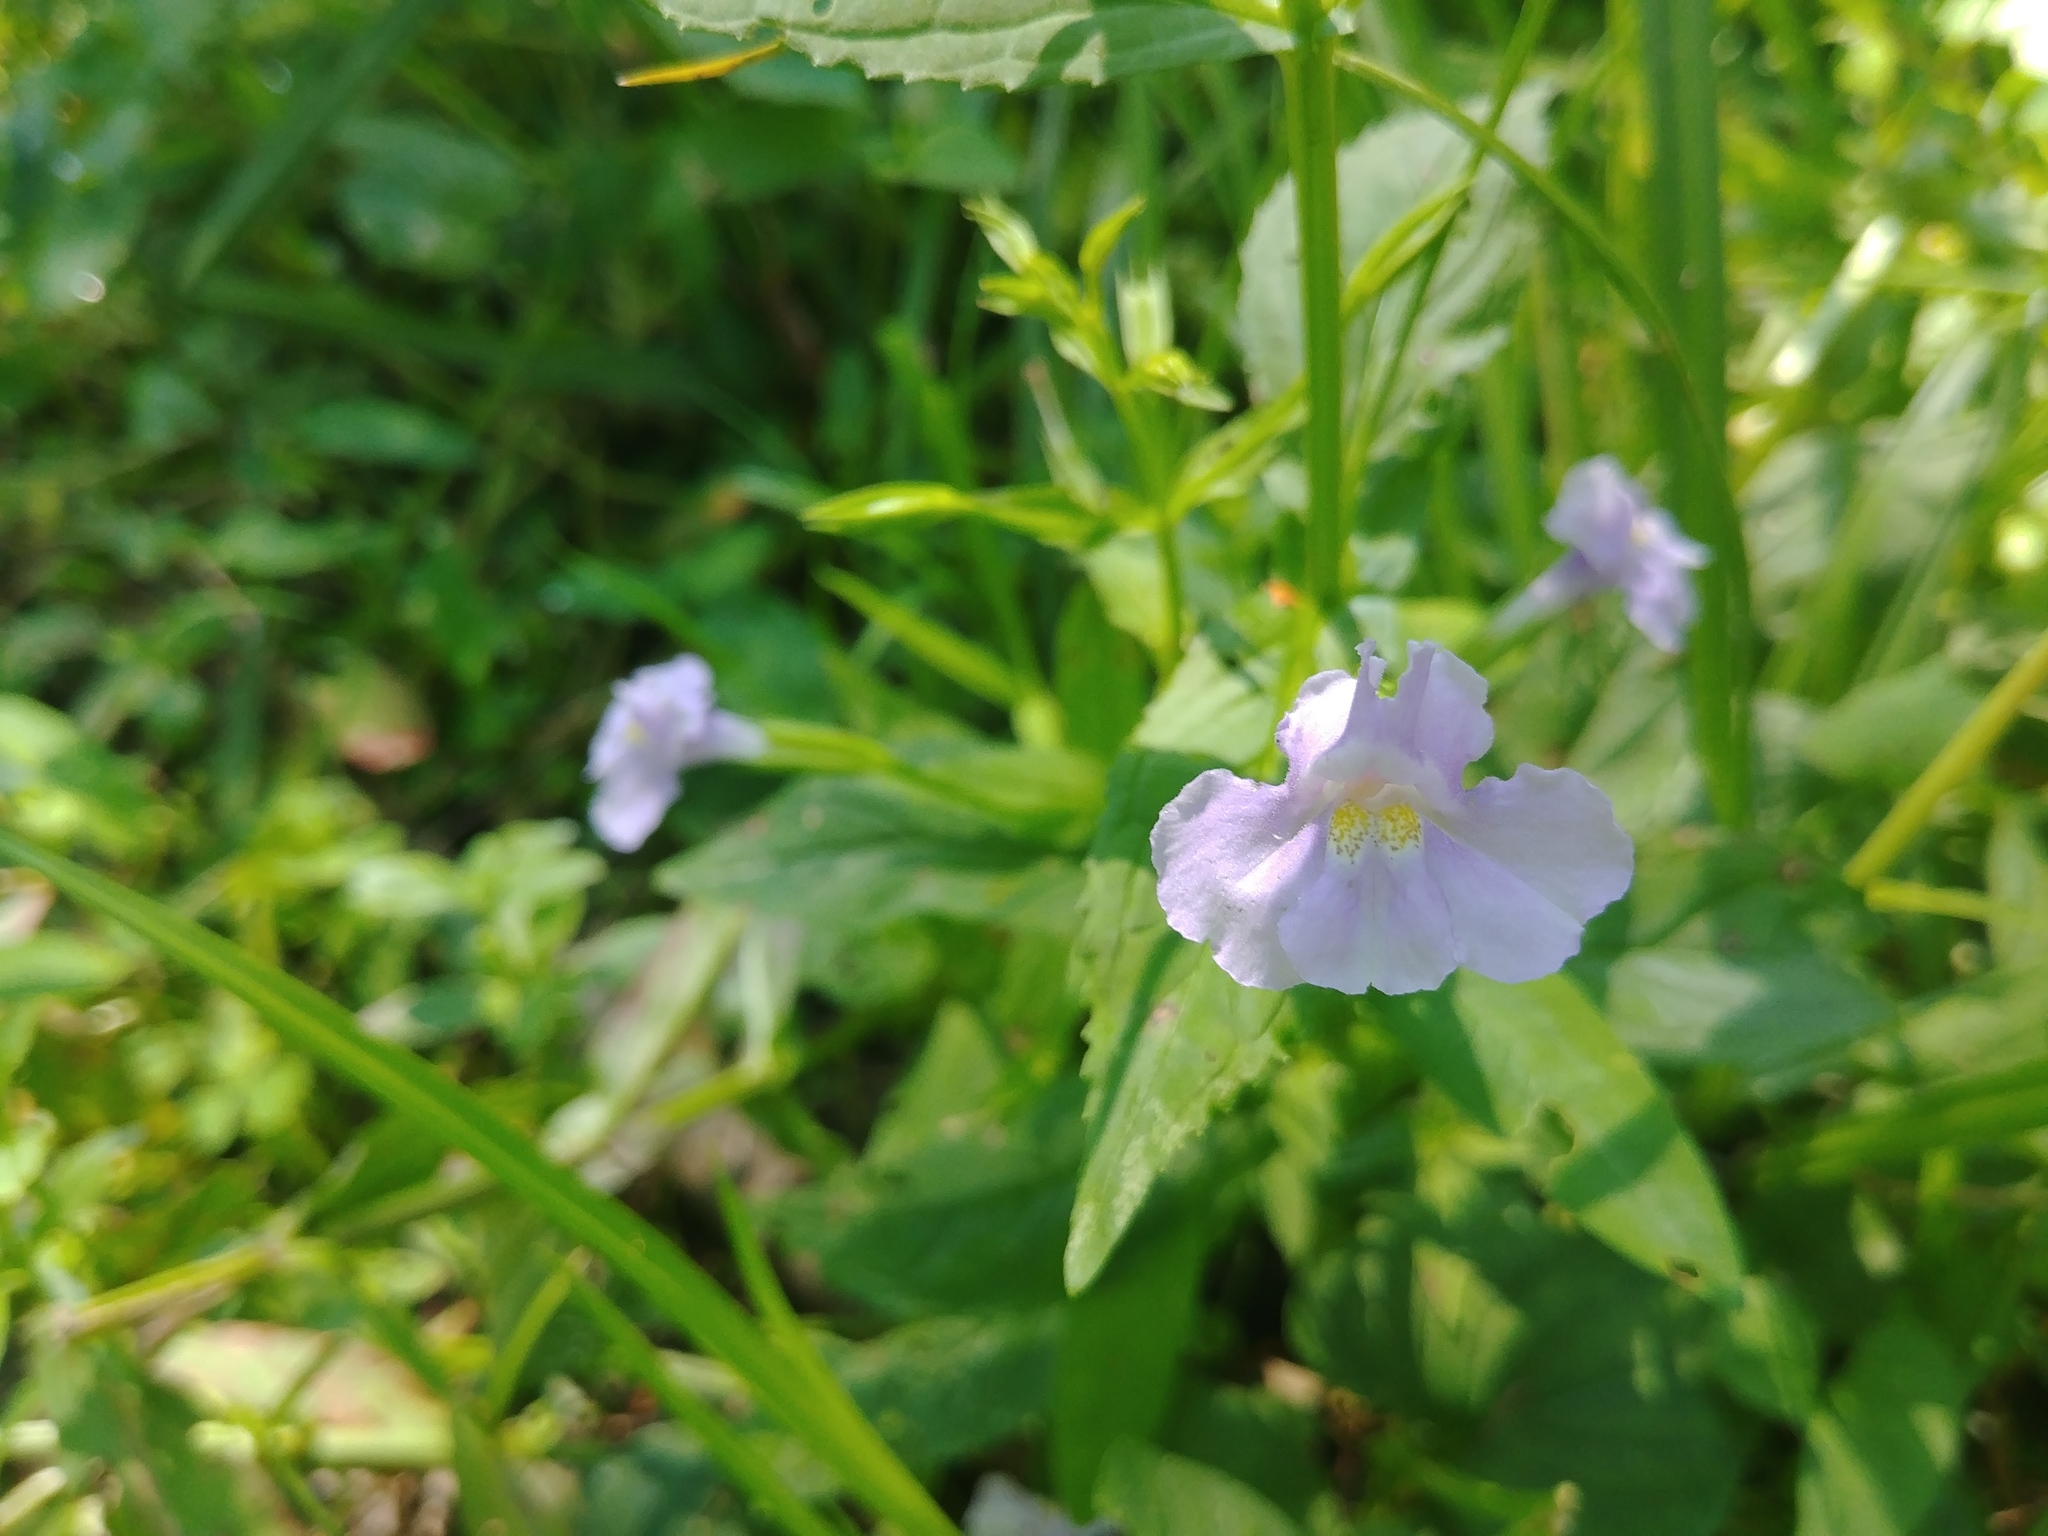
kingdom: Plantae
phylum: Tracheophyta
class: Magnoliopsida
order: Lamiales
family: Phrymaceae
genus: Mimulus
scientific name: Mimulus ringens
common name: Allegheny monkeyflower
